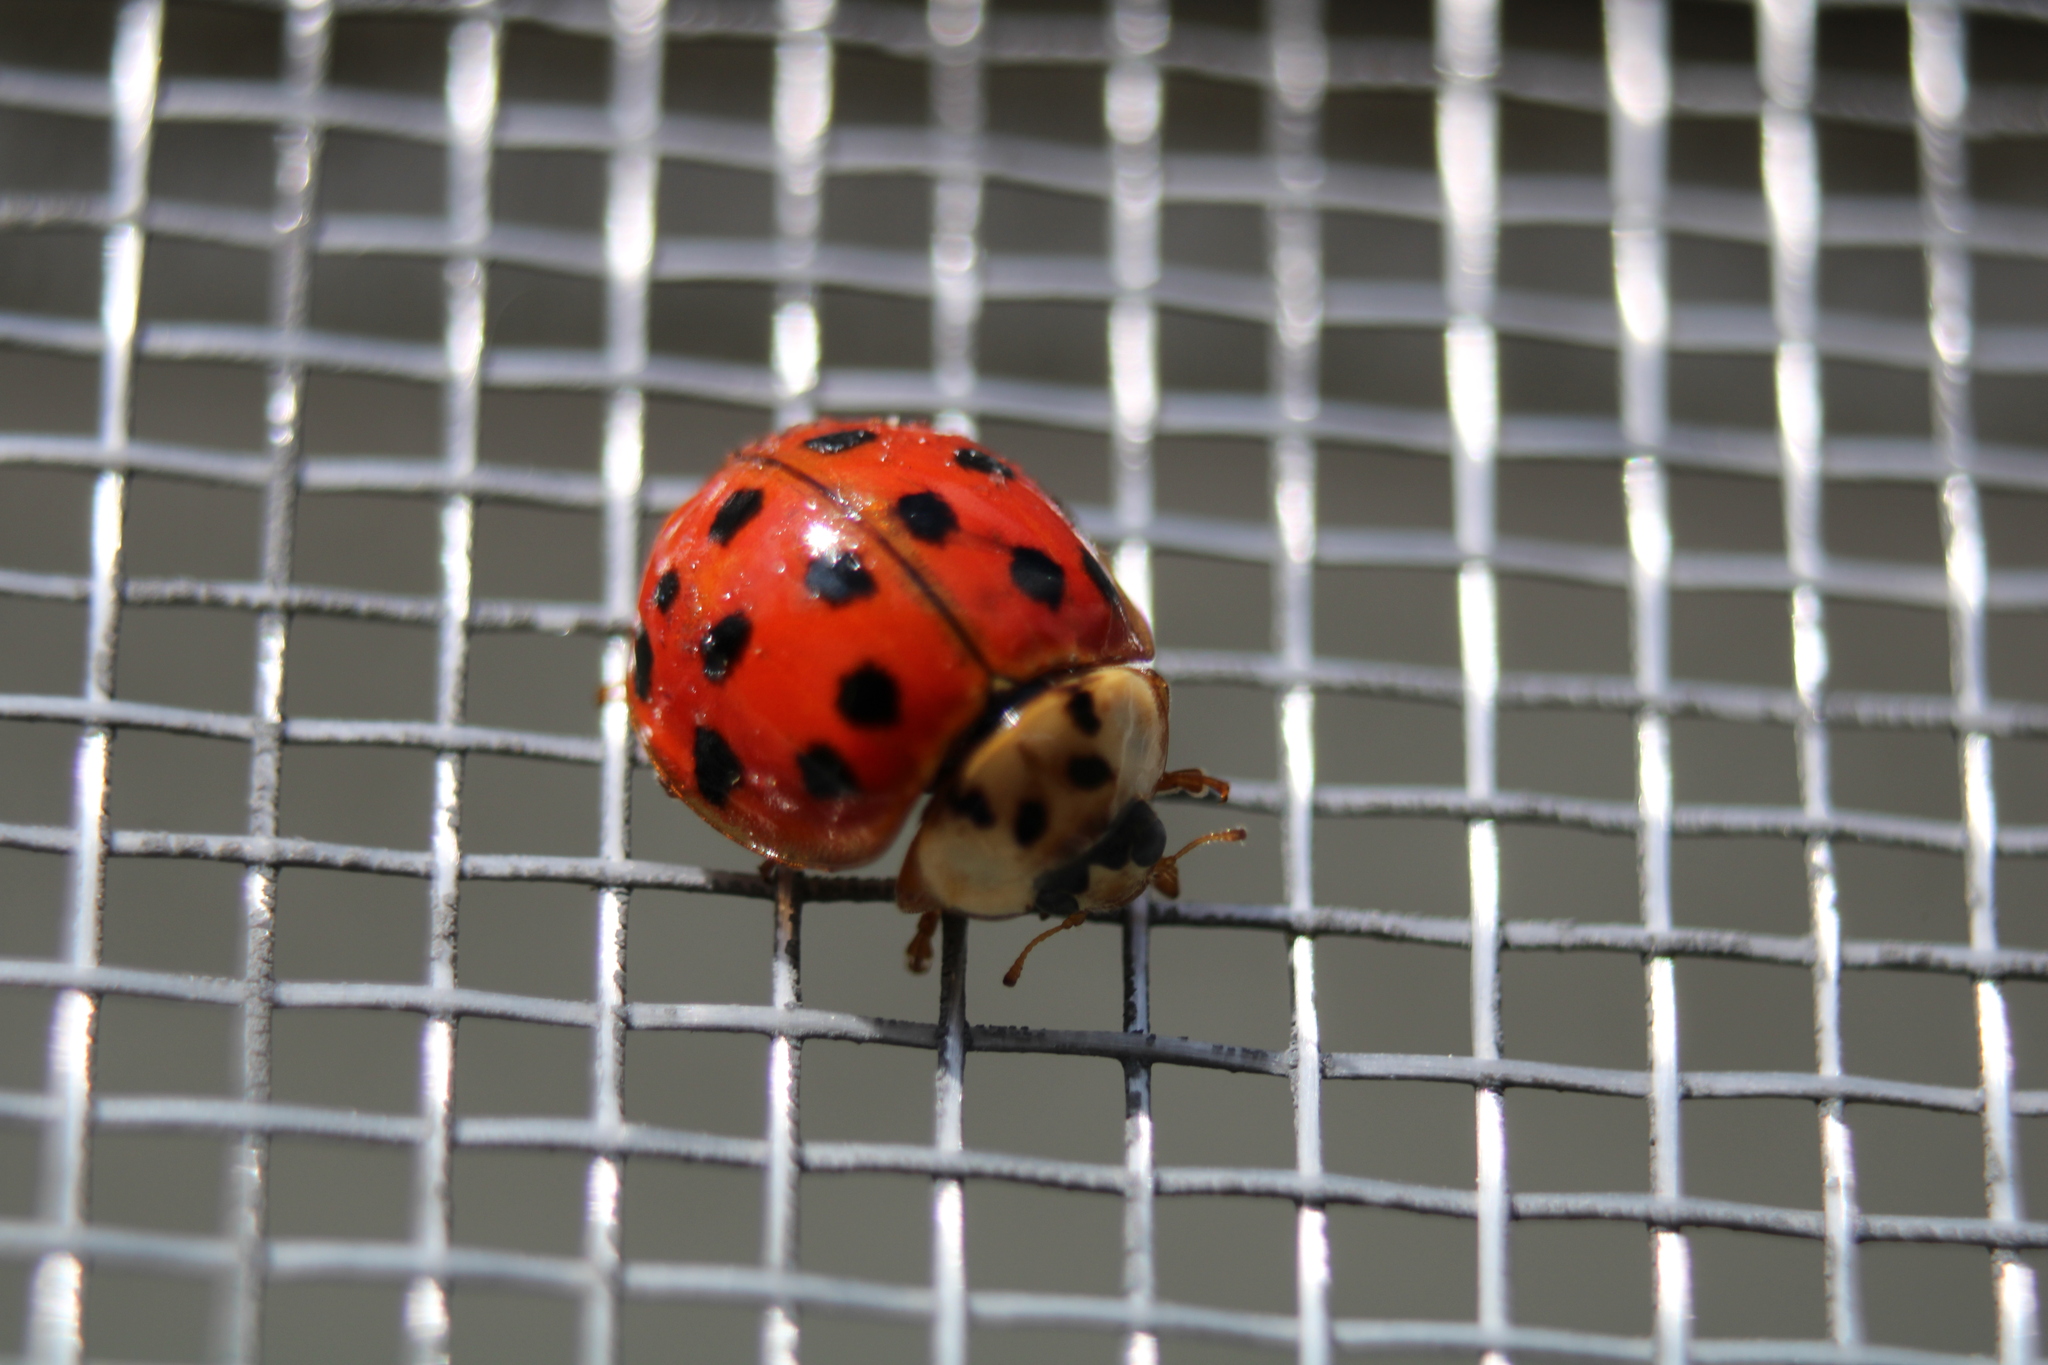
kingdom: Animalia
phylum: Arthropoda
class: Insecta
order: Coleoptera
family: Coccinellidae
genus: Harmonia
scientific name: Harmonia axyridis
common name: Harlequin ladybird
